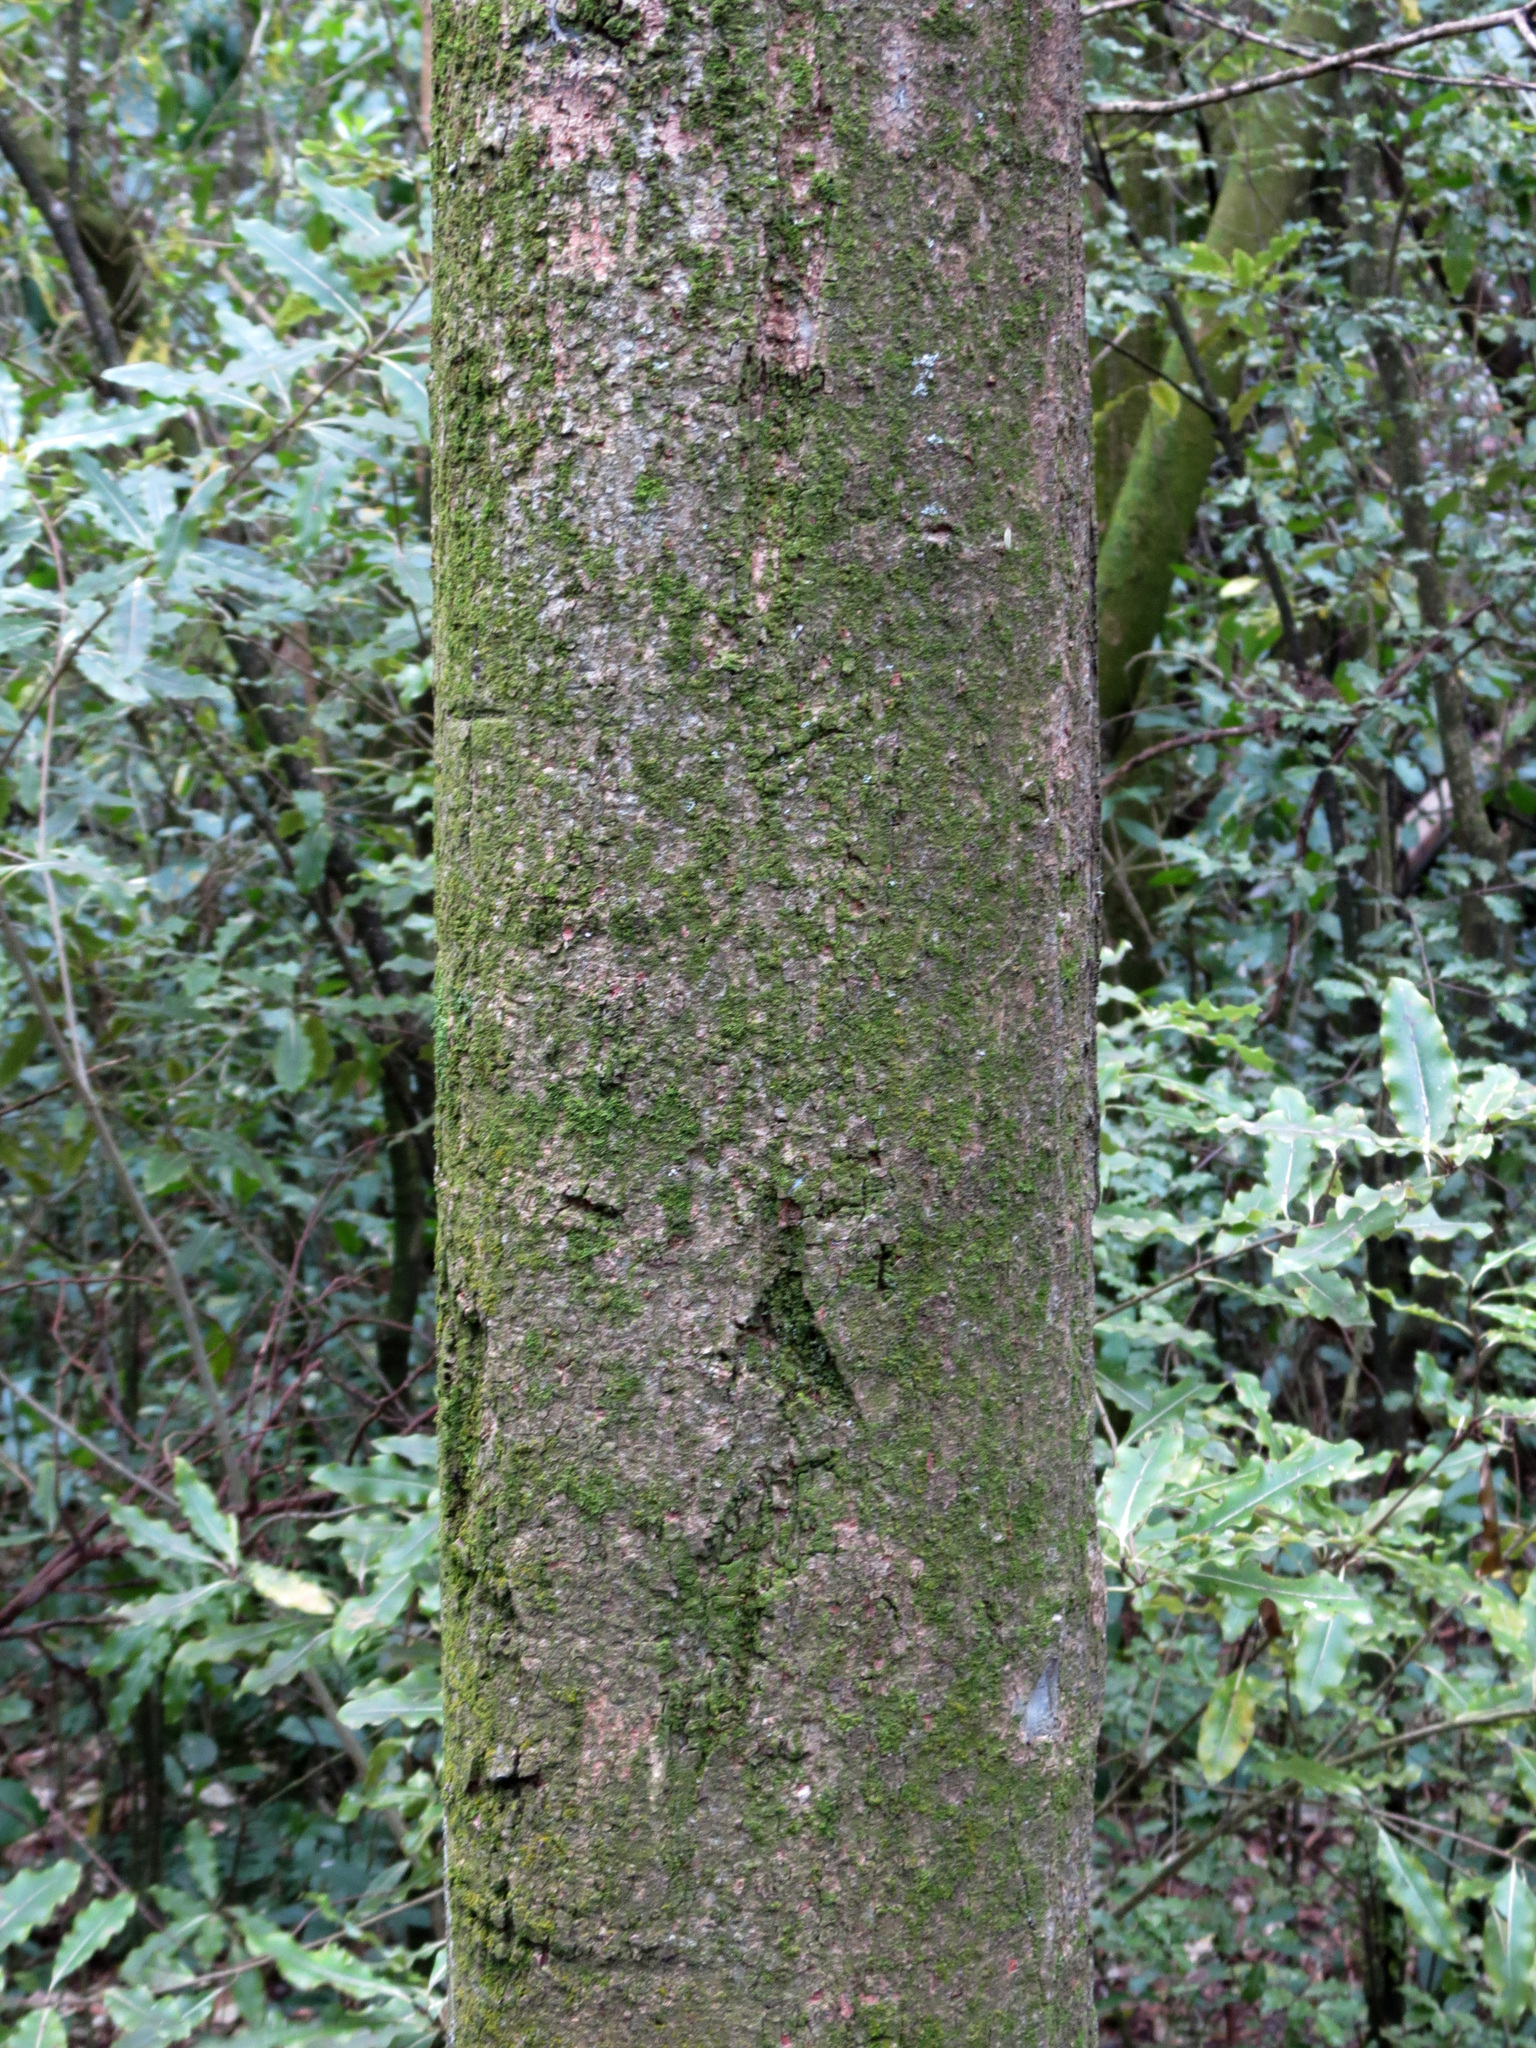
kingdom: Plantae
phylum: Tracheophyta
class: Magnoliopsida
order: Malvales
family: Malvaceae
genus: Plagianthus
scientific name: Plagianthus regius
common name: Manatu
